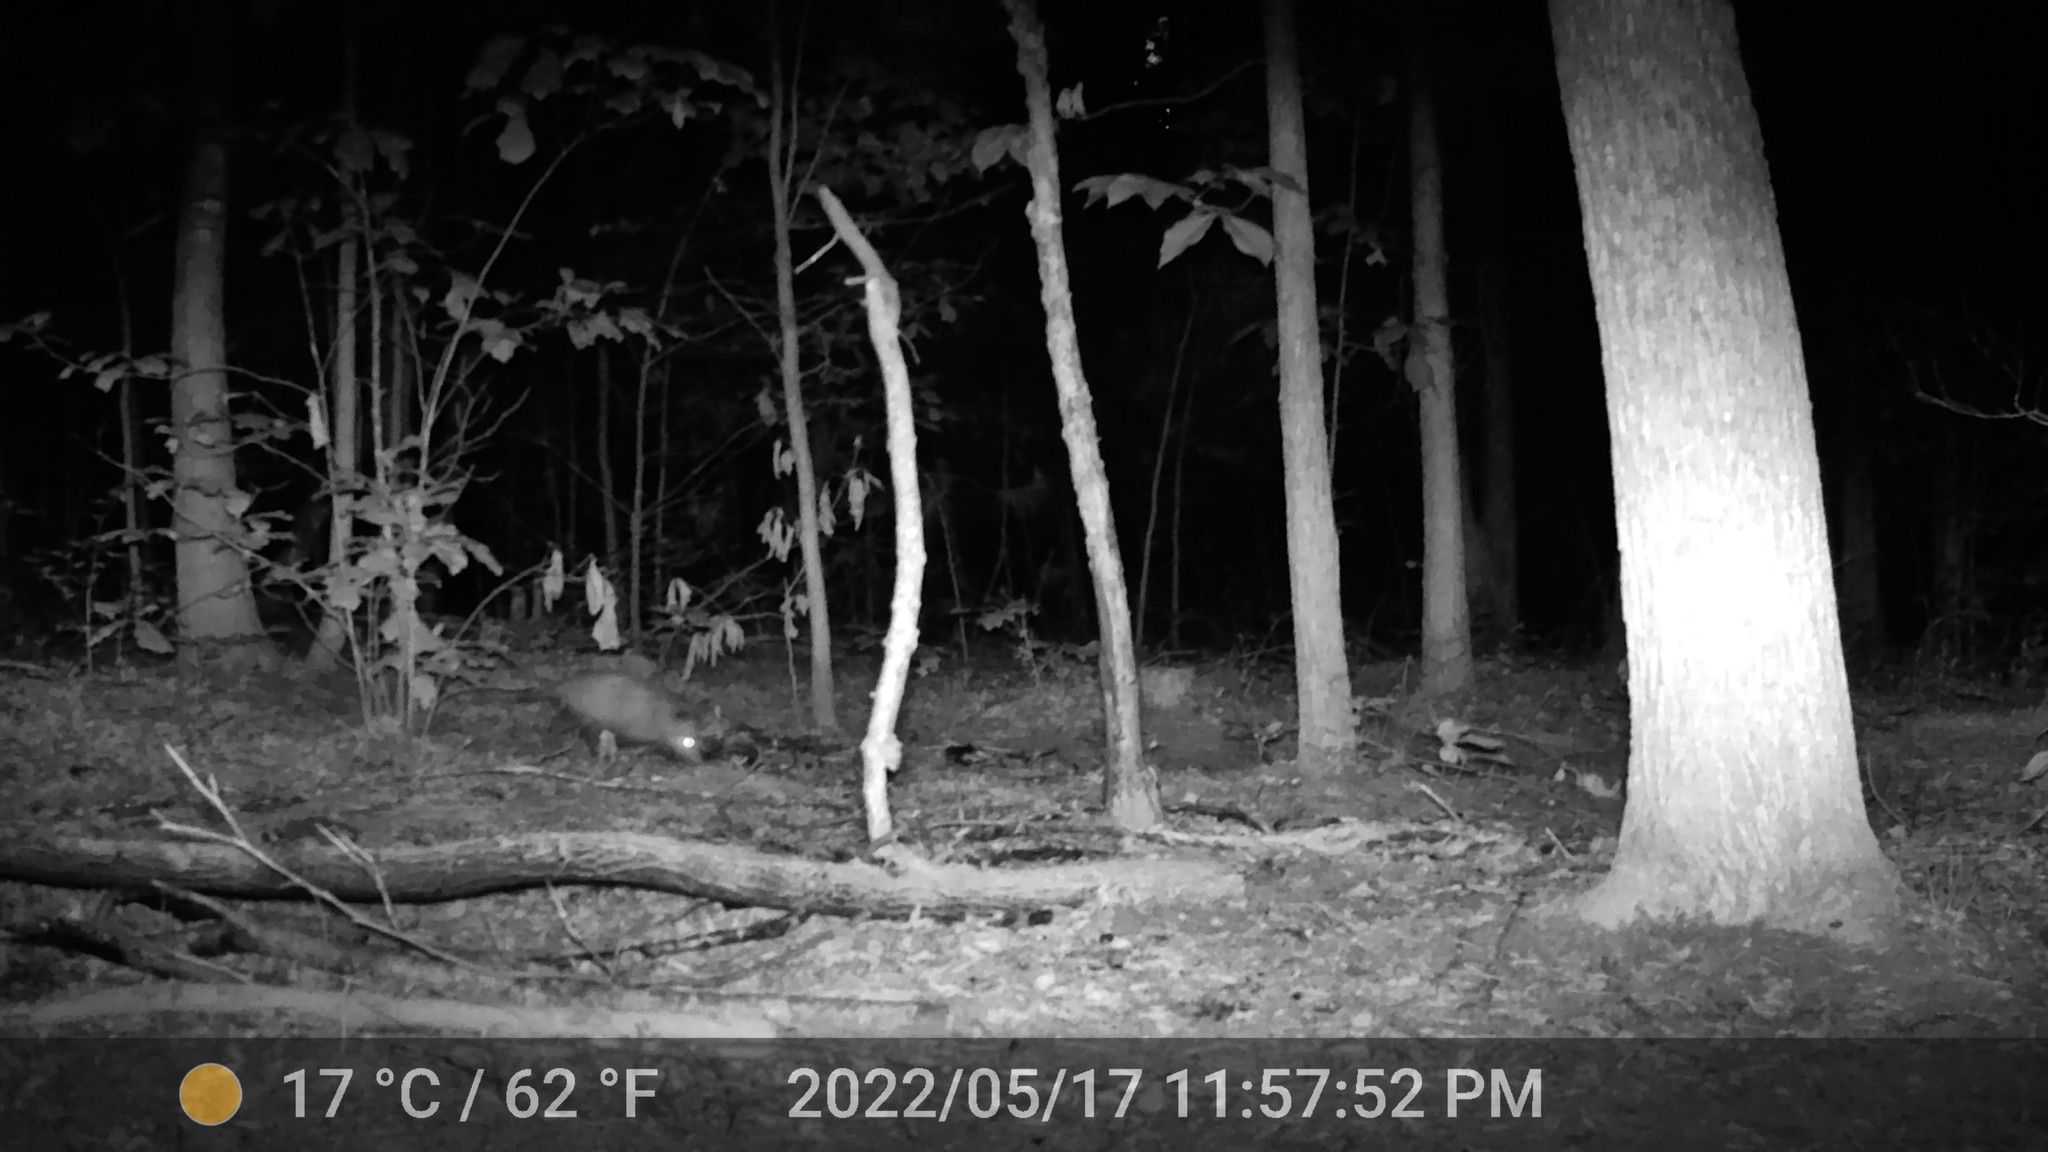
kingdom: Animalia
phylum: Chordata
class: Mammalia
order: Didelphimorphia
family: Didelphidae
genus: Didelphis
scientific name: Didelphis virginiana
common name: Virginia opossum
